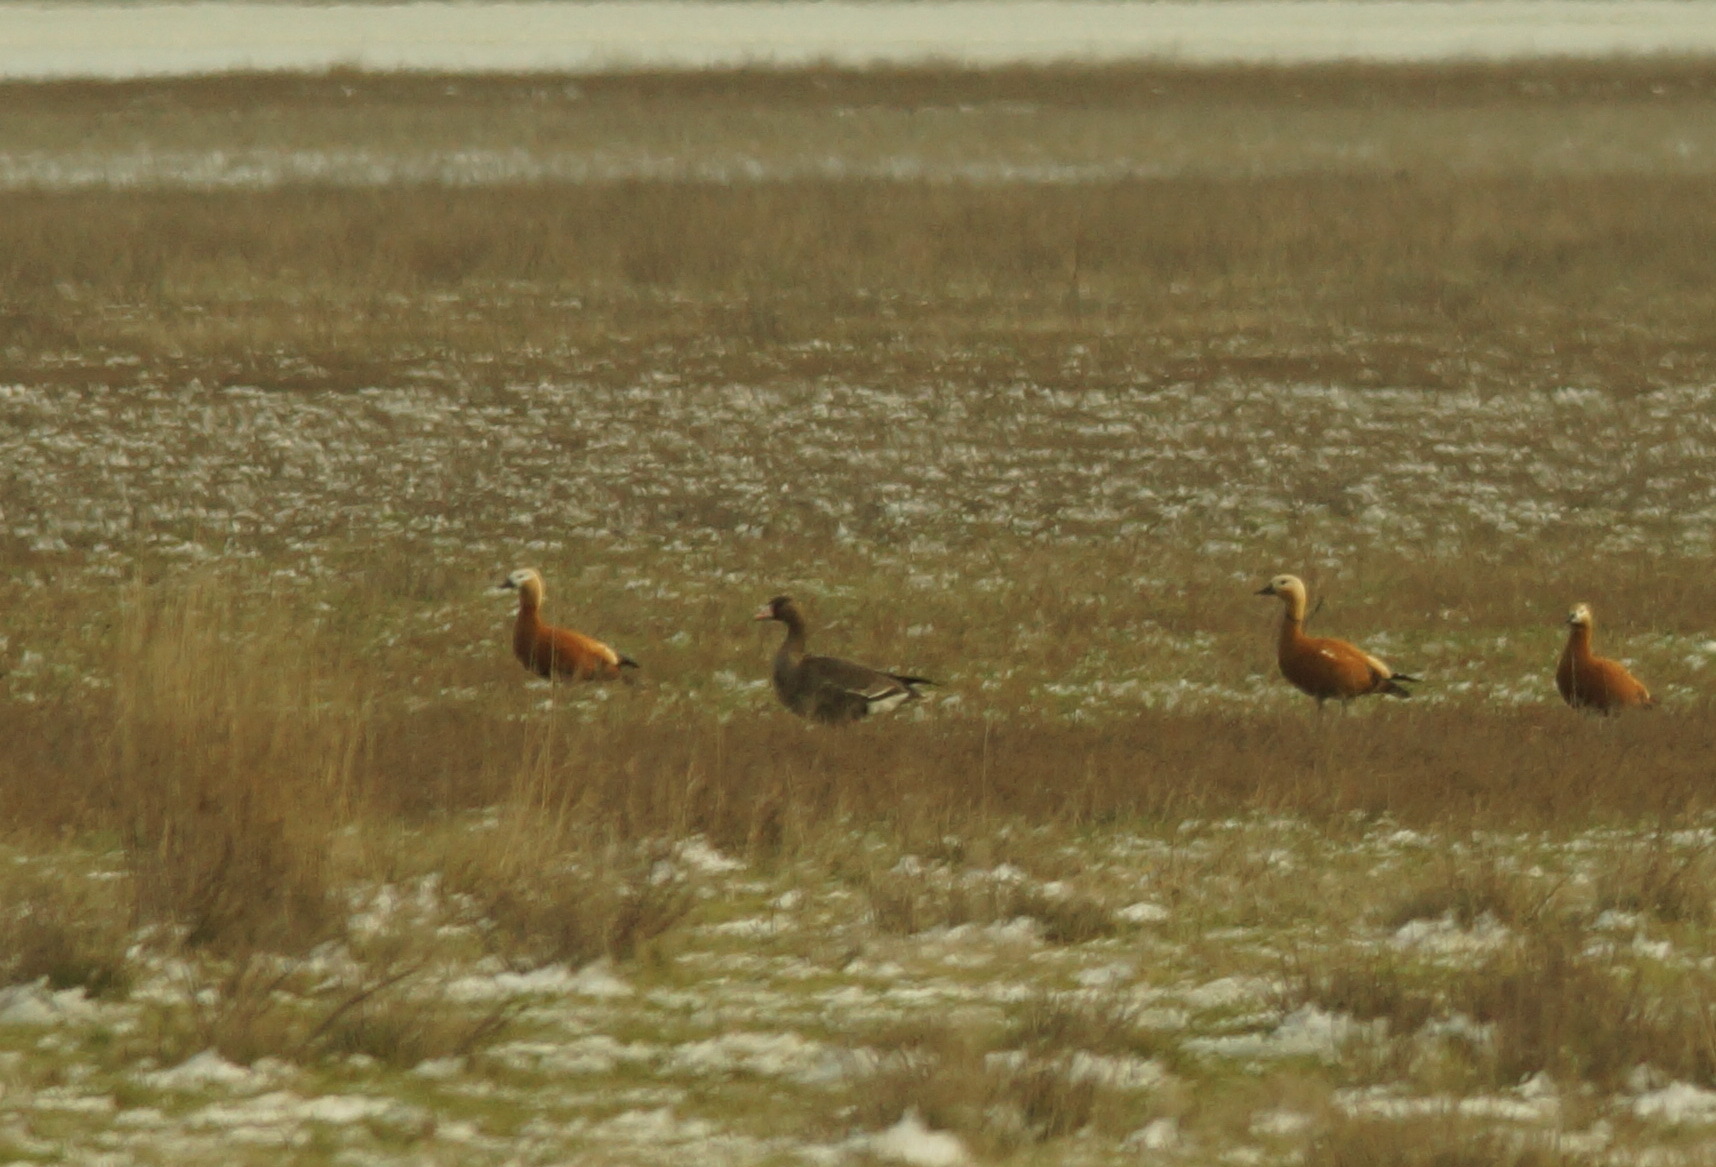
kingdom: Animalia
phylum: Chordata
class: Aves
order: Anseriformes
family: Anatidae
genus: Tadorna
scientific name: Tadorna ferruginea
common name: Ruddy shelduck
